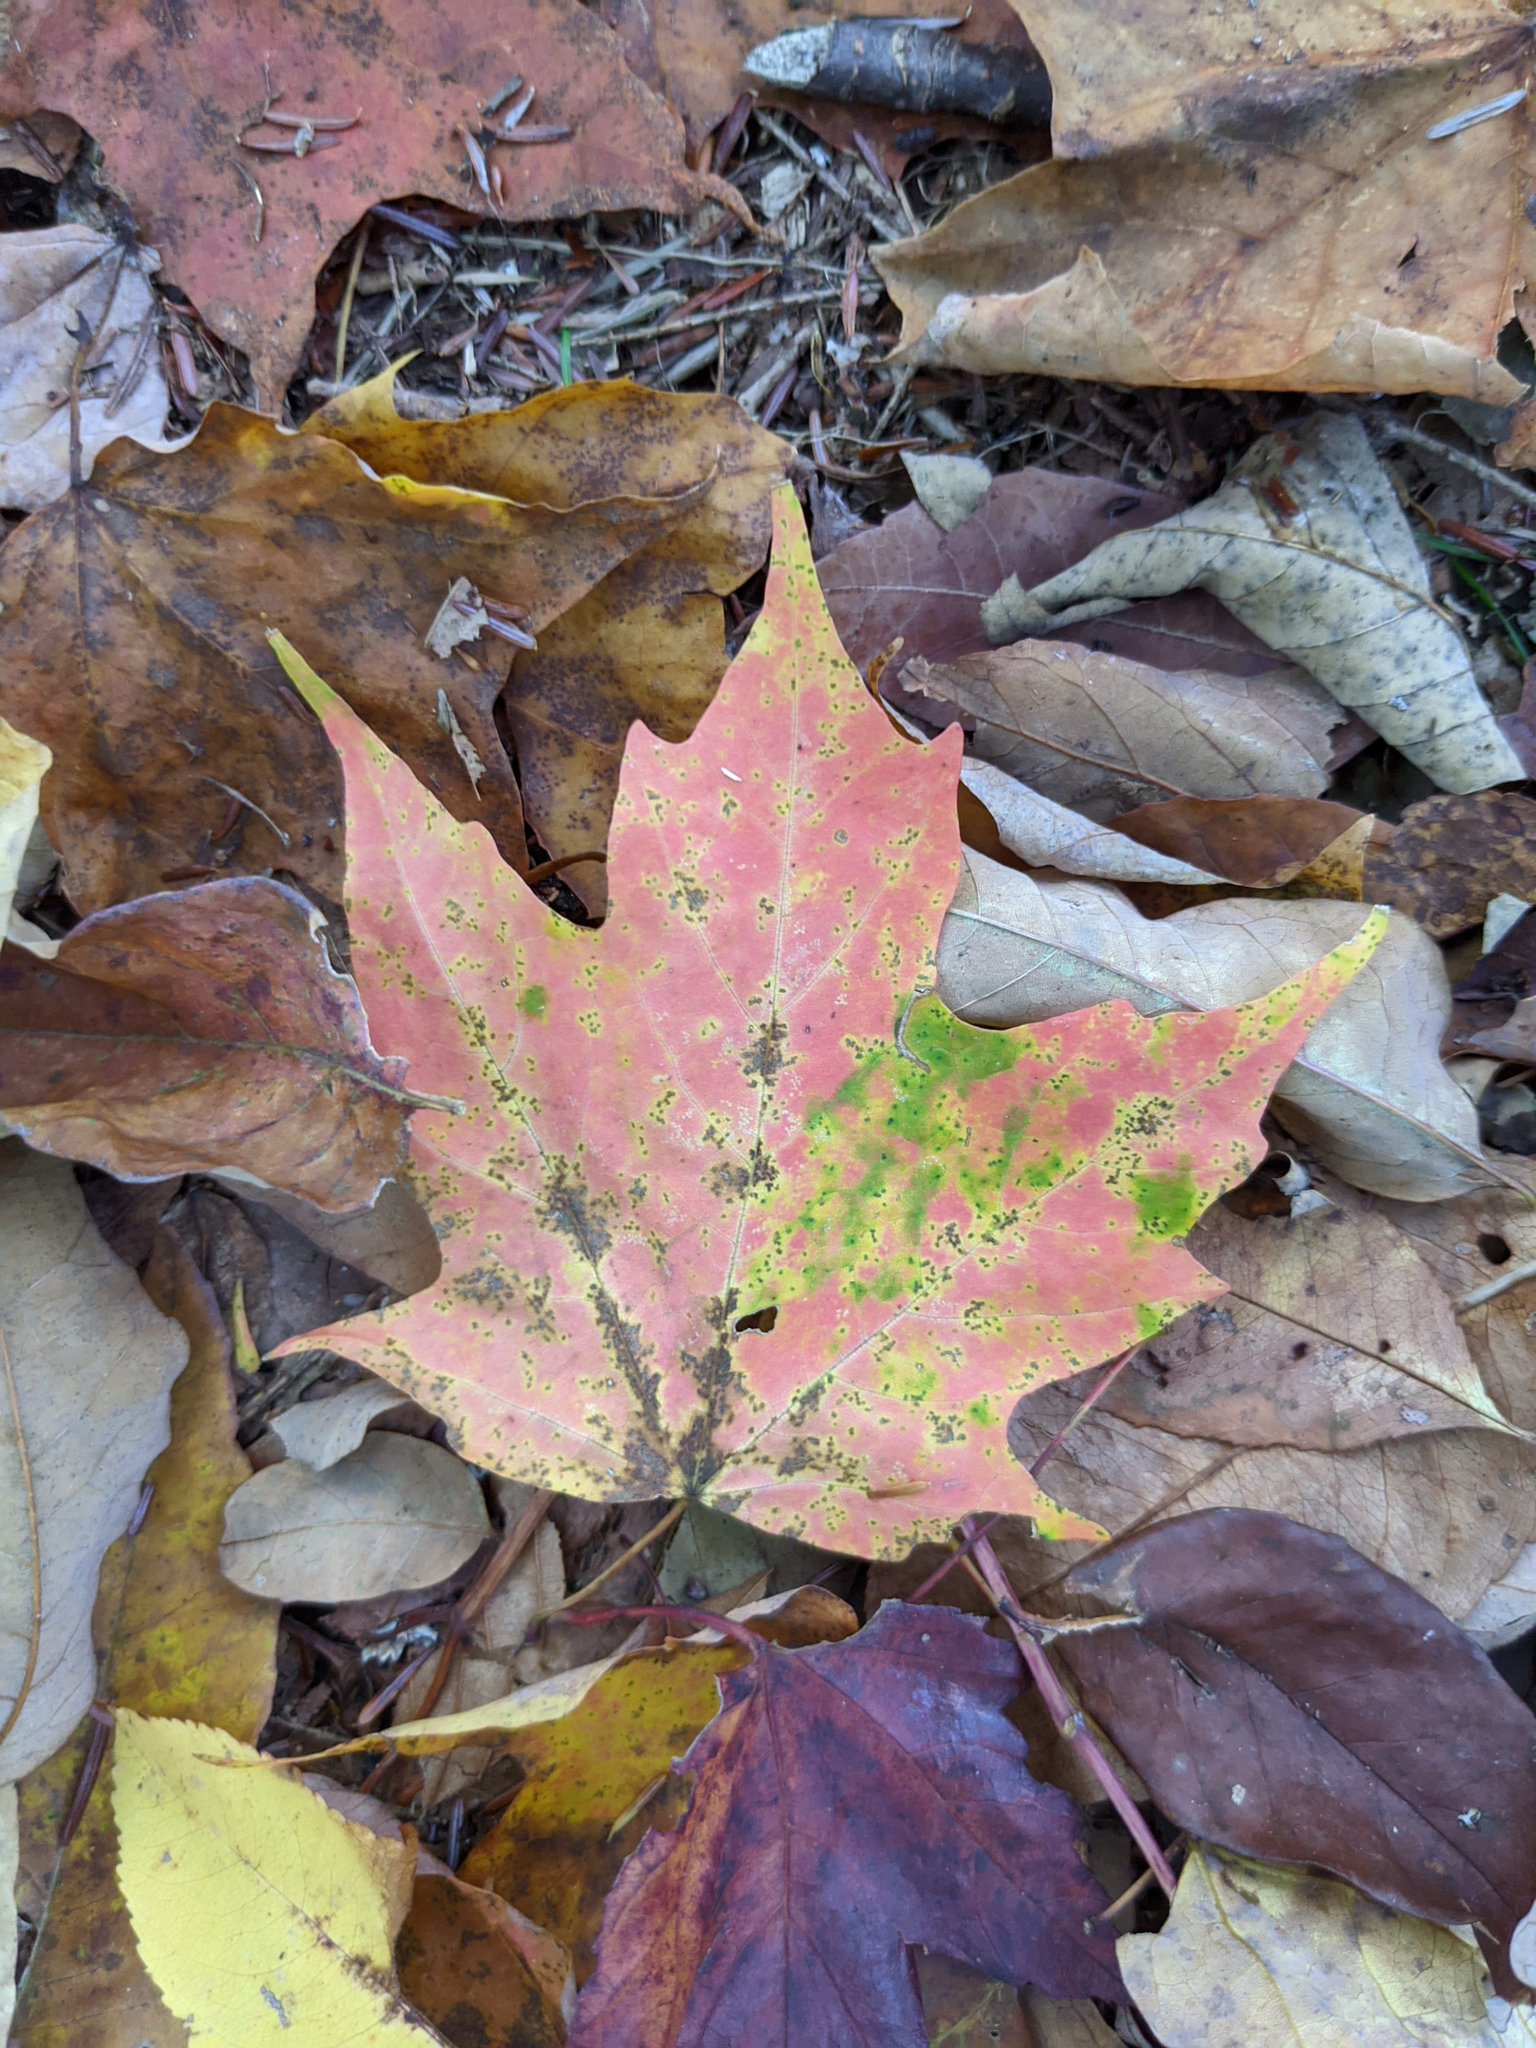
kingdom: Plantae
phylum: Tracheophyta
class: Magnoliopsida
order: Sapindales
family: Sapindaceae
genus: Acer
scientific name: Acer saccharum
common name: Sugar maple
